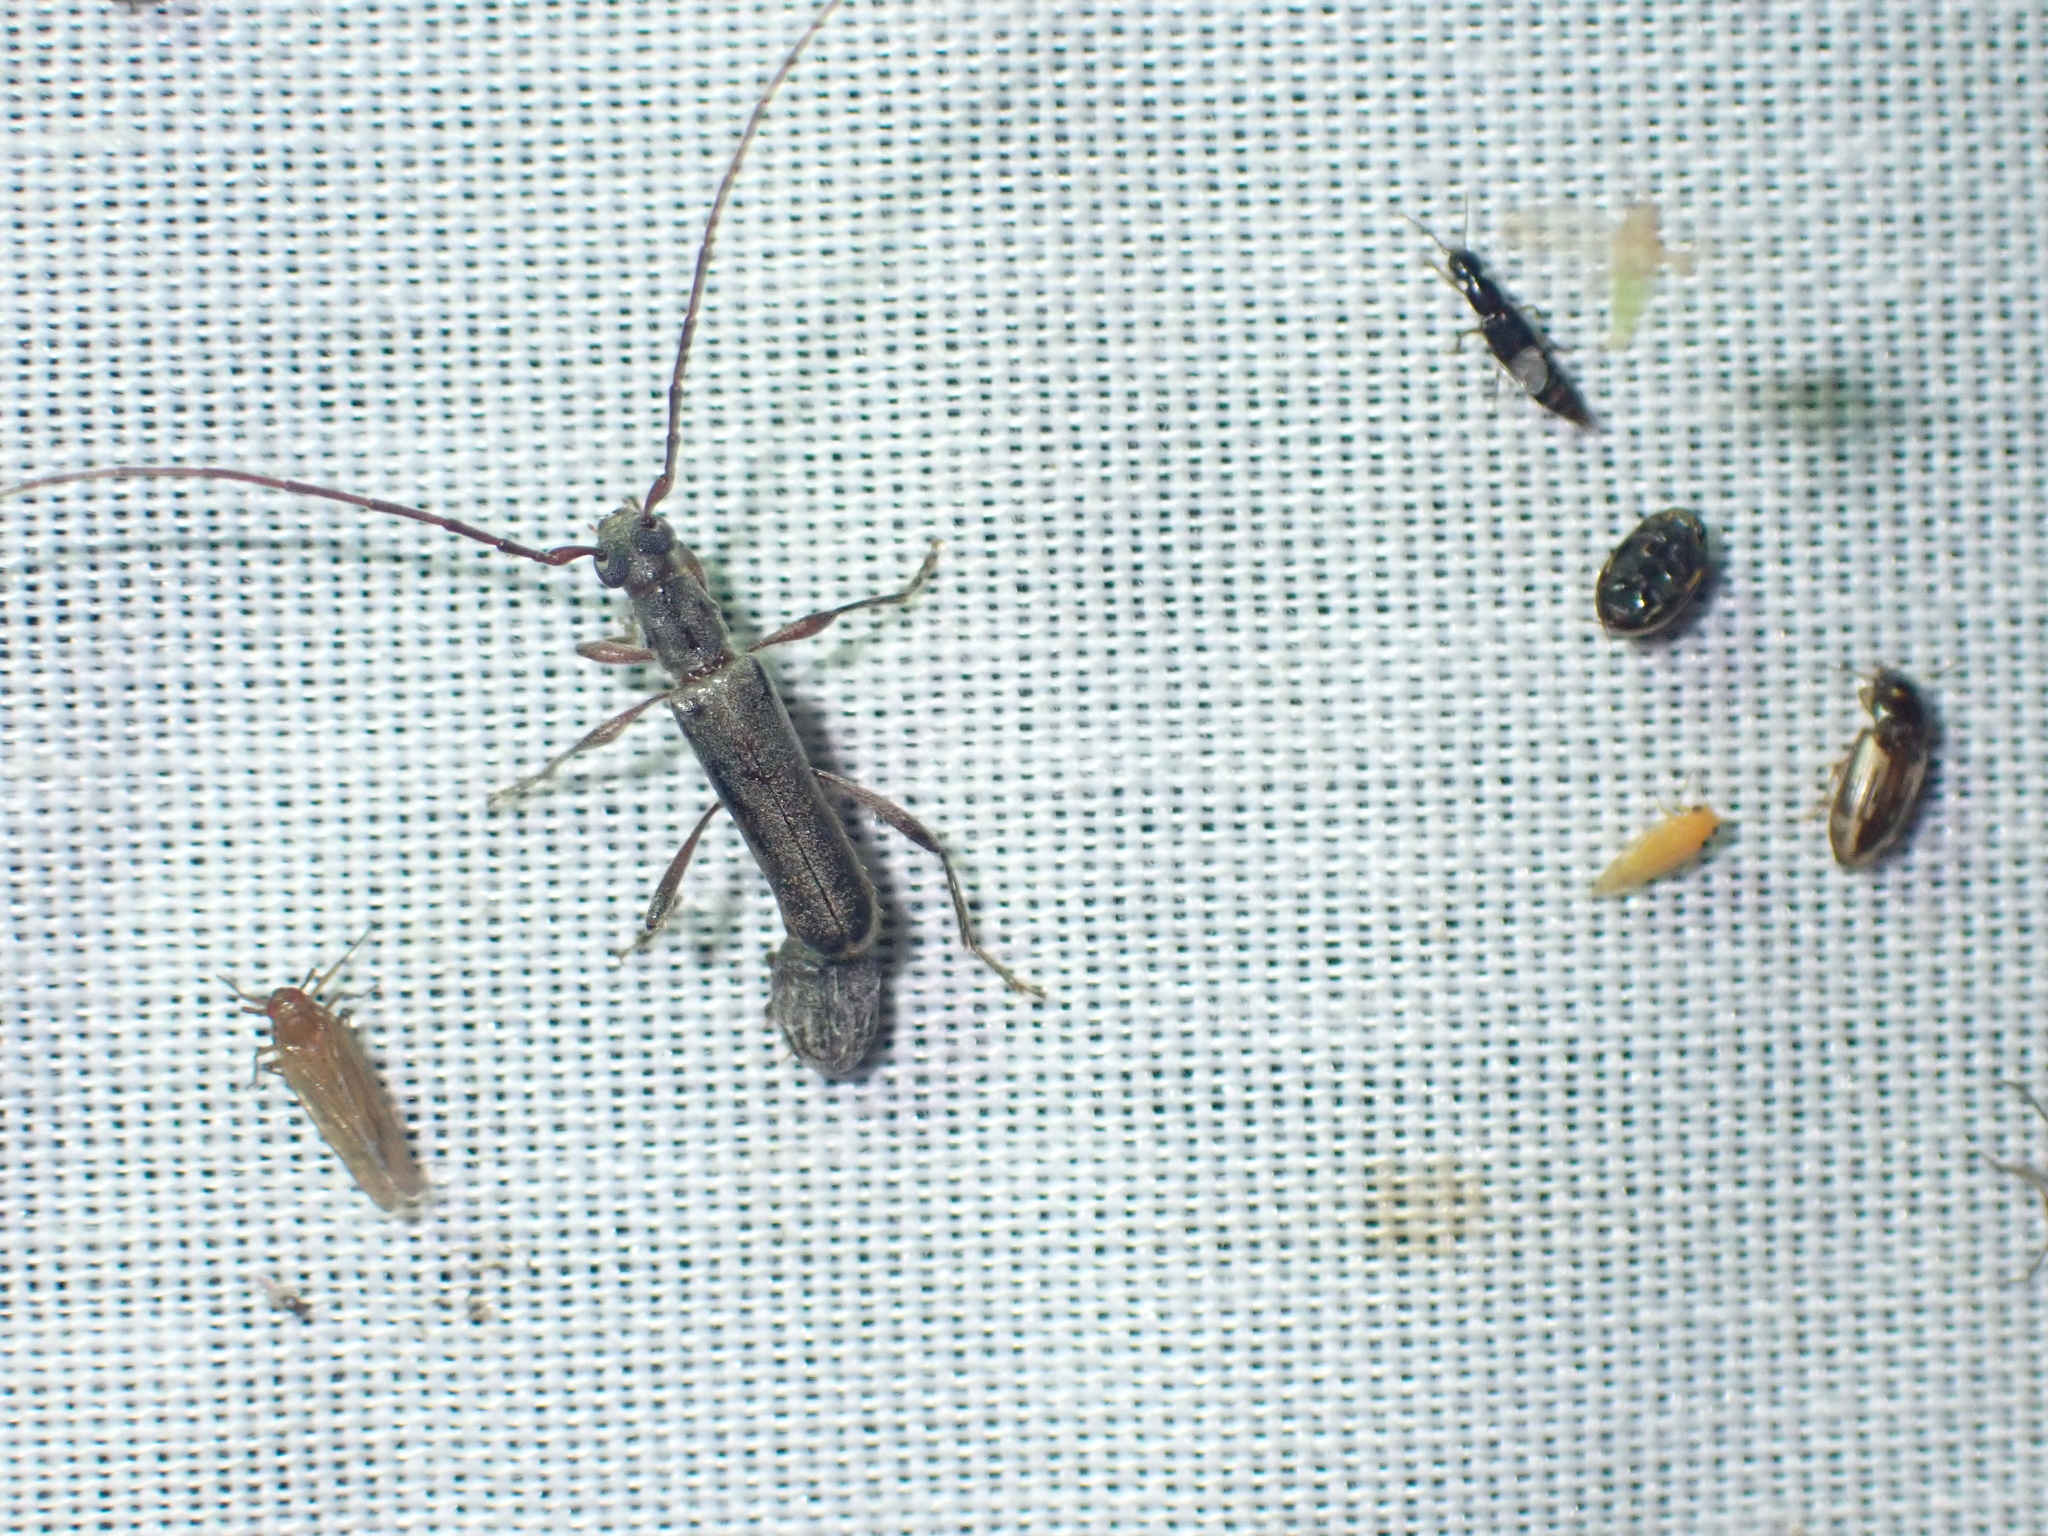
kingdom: Animalia
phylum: Arthropoda
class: Insecta
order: Coleoptera
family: Cerambycidae
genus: Ossibia
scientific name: Ossibia fuscata
